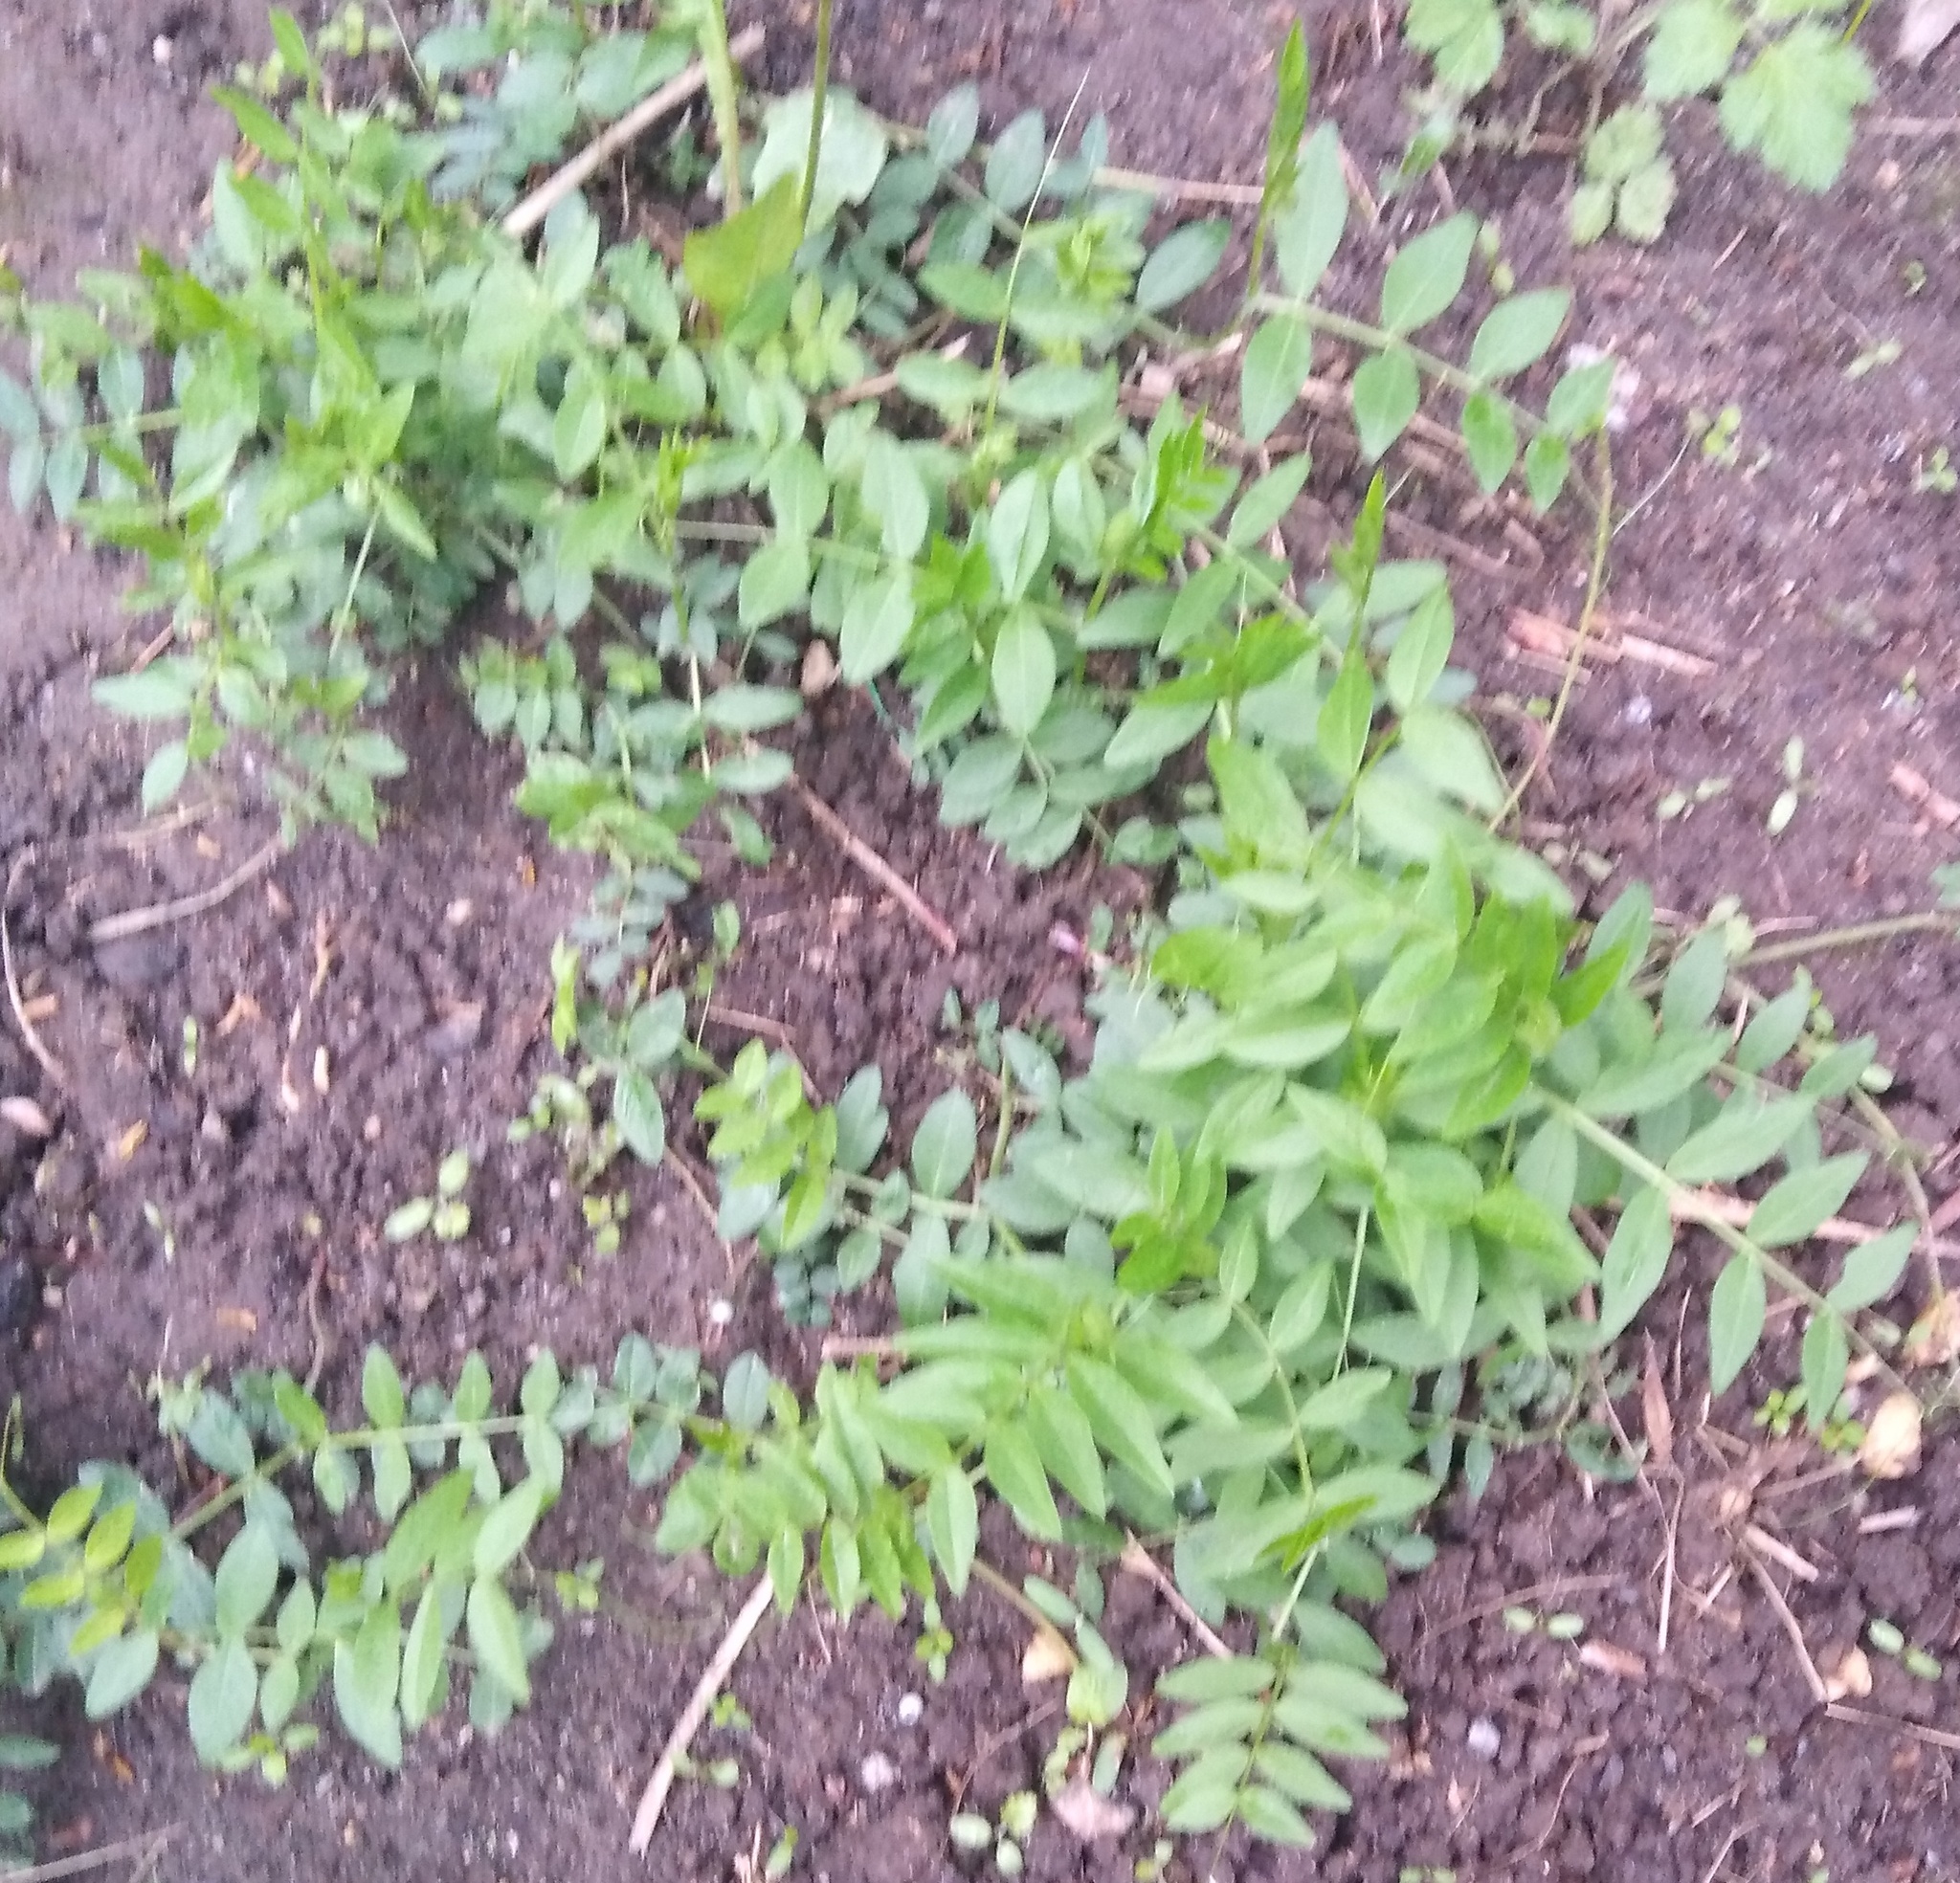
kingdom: Plantae
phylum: Tracheophyta
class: Magnoliopsida
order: Fabales
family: Fabaceae
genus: Vicia
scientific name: Vicia sepium
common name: Bush vetch
